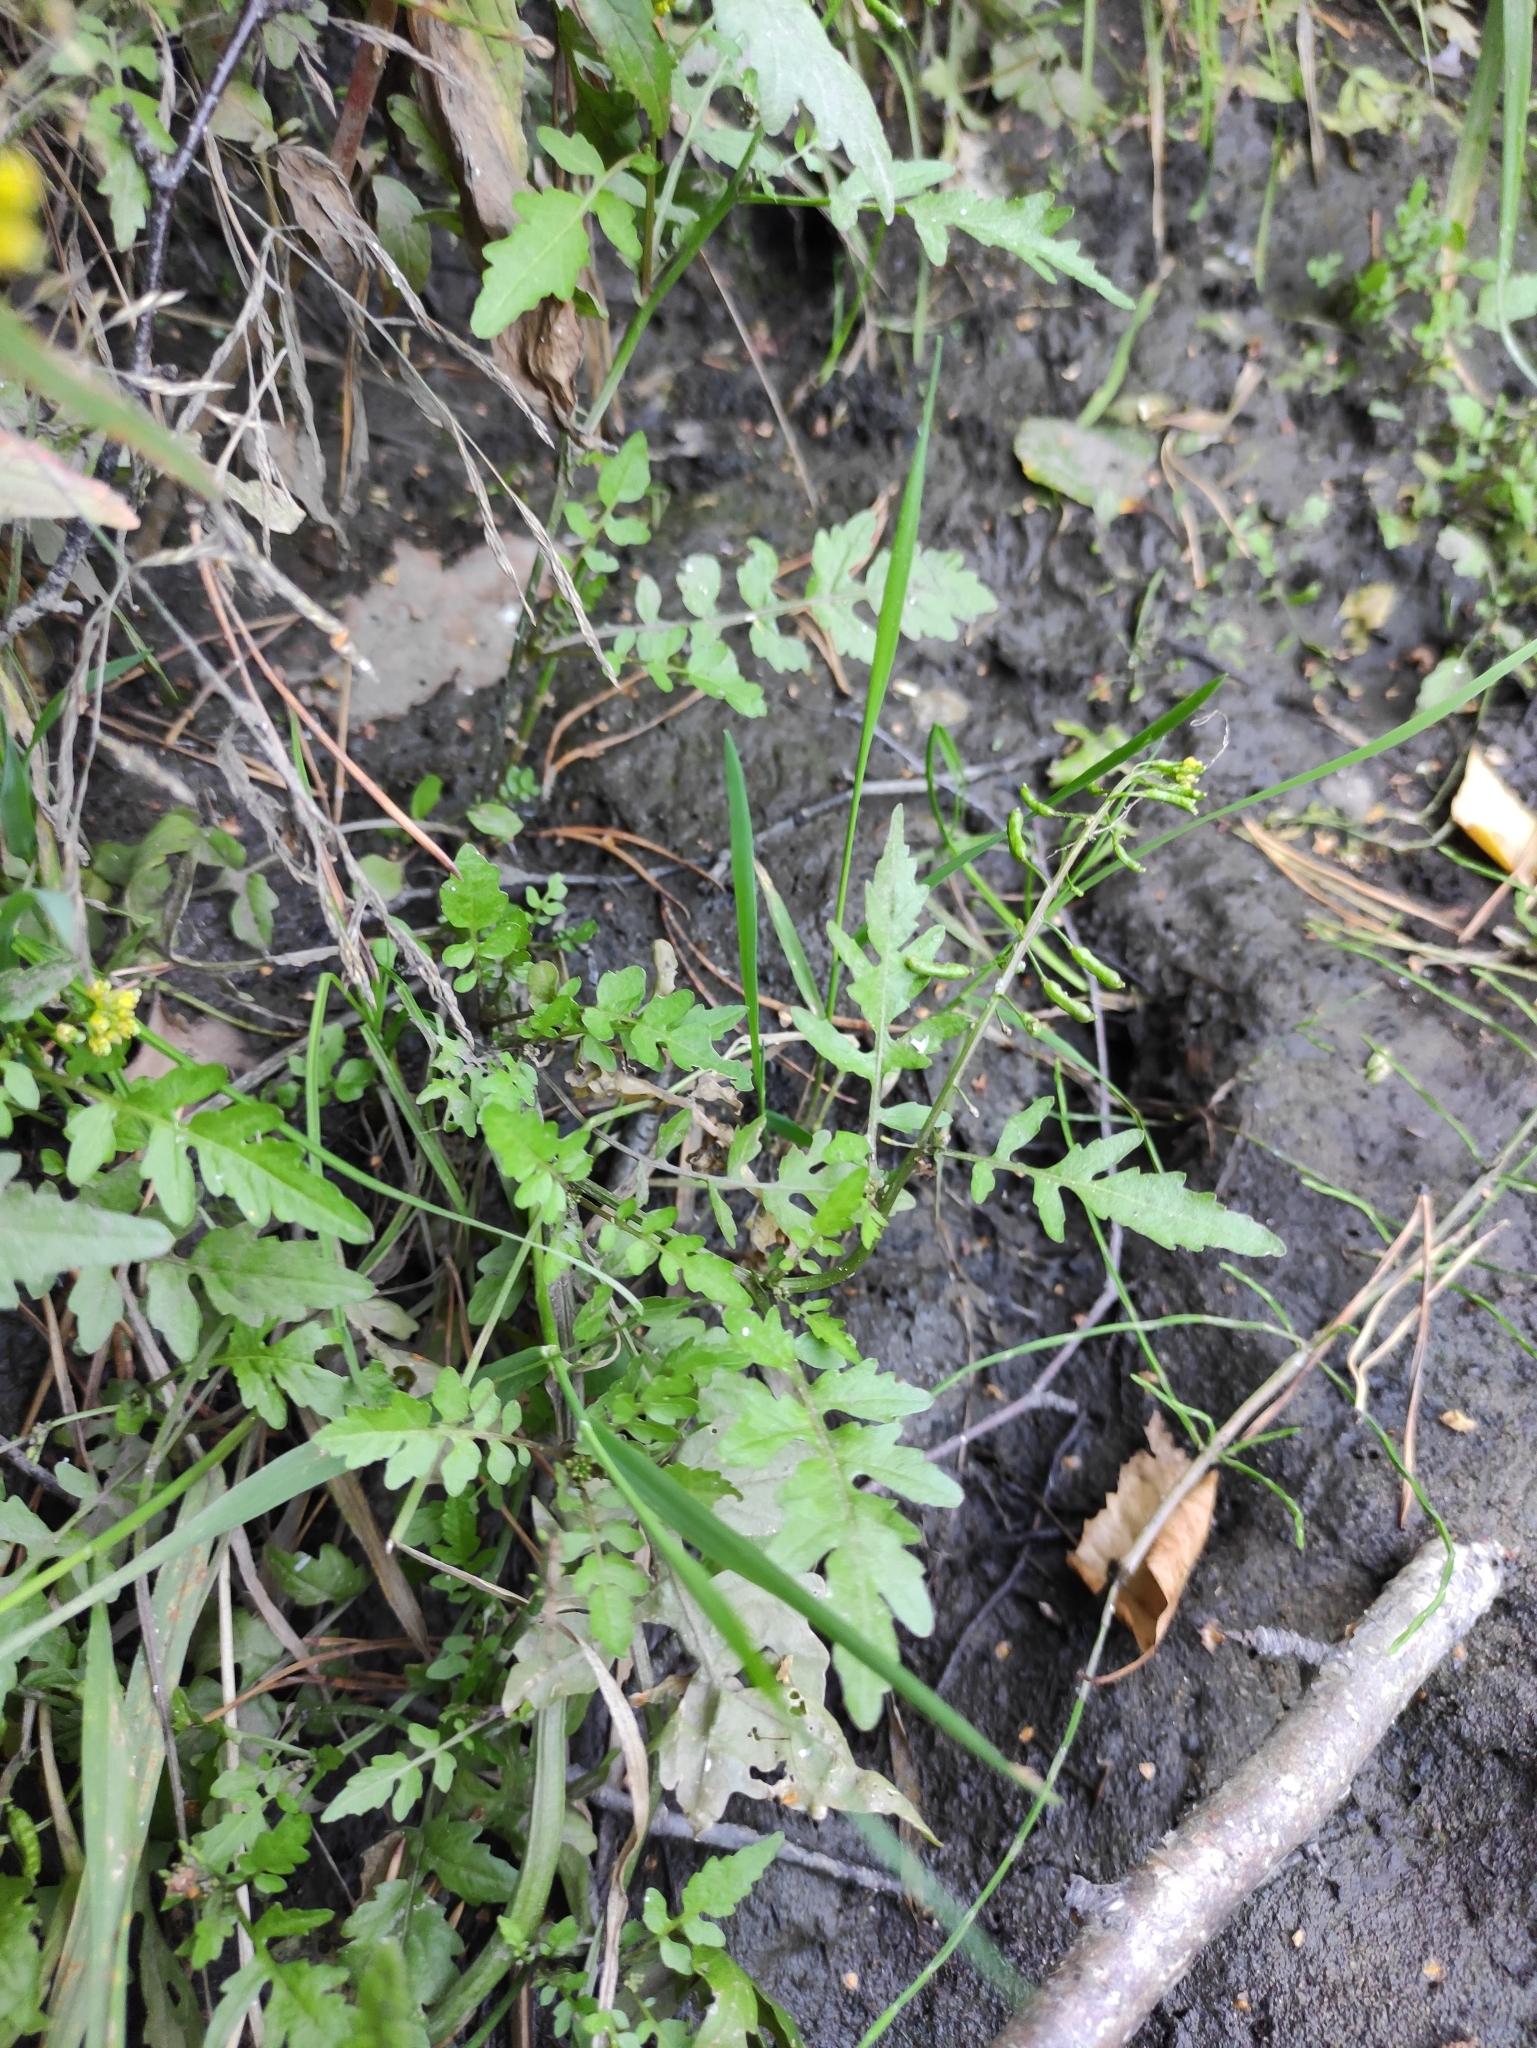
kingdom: Plantae
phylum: Tracheophyta
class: Magnoliopsida
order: Brassicales
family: Brassicaceae
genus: Rorippa
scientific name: Rorippa palustris
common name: Marsh yellow-cress
